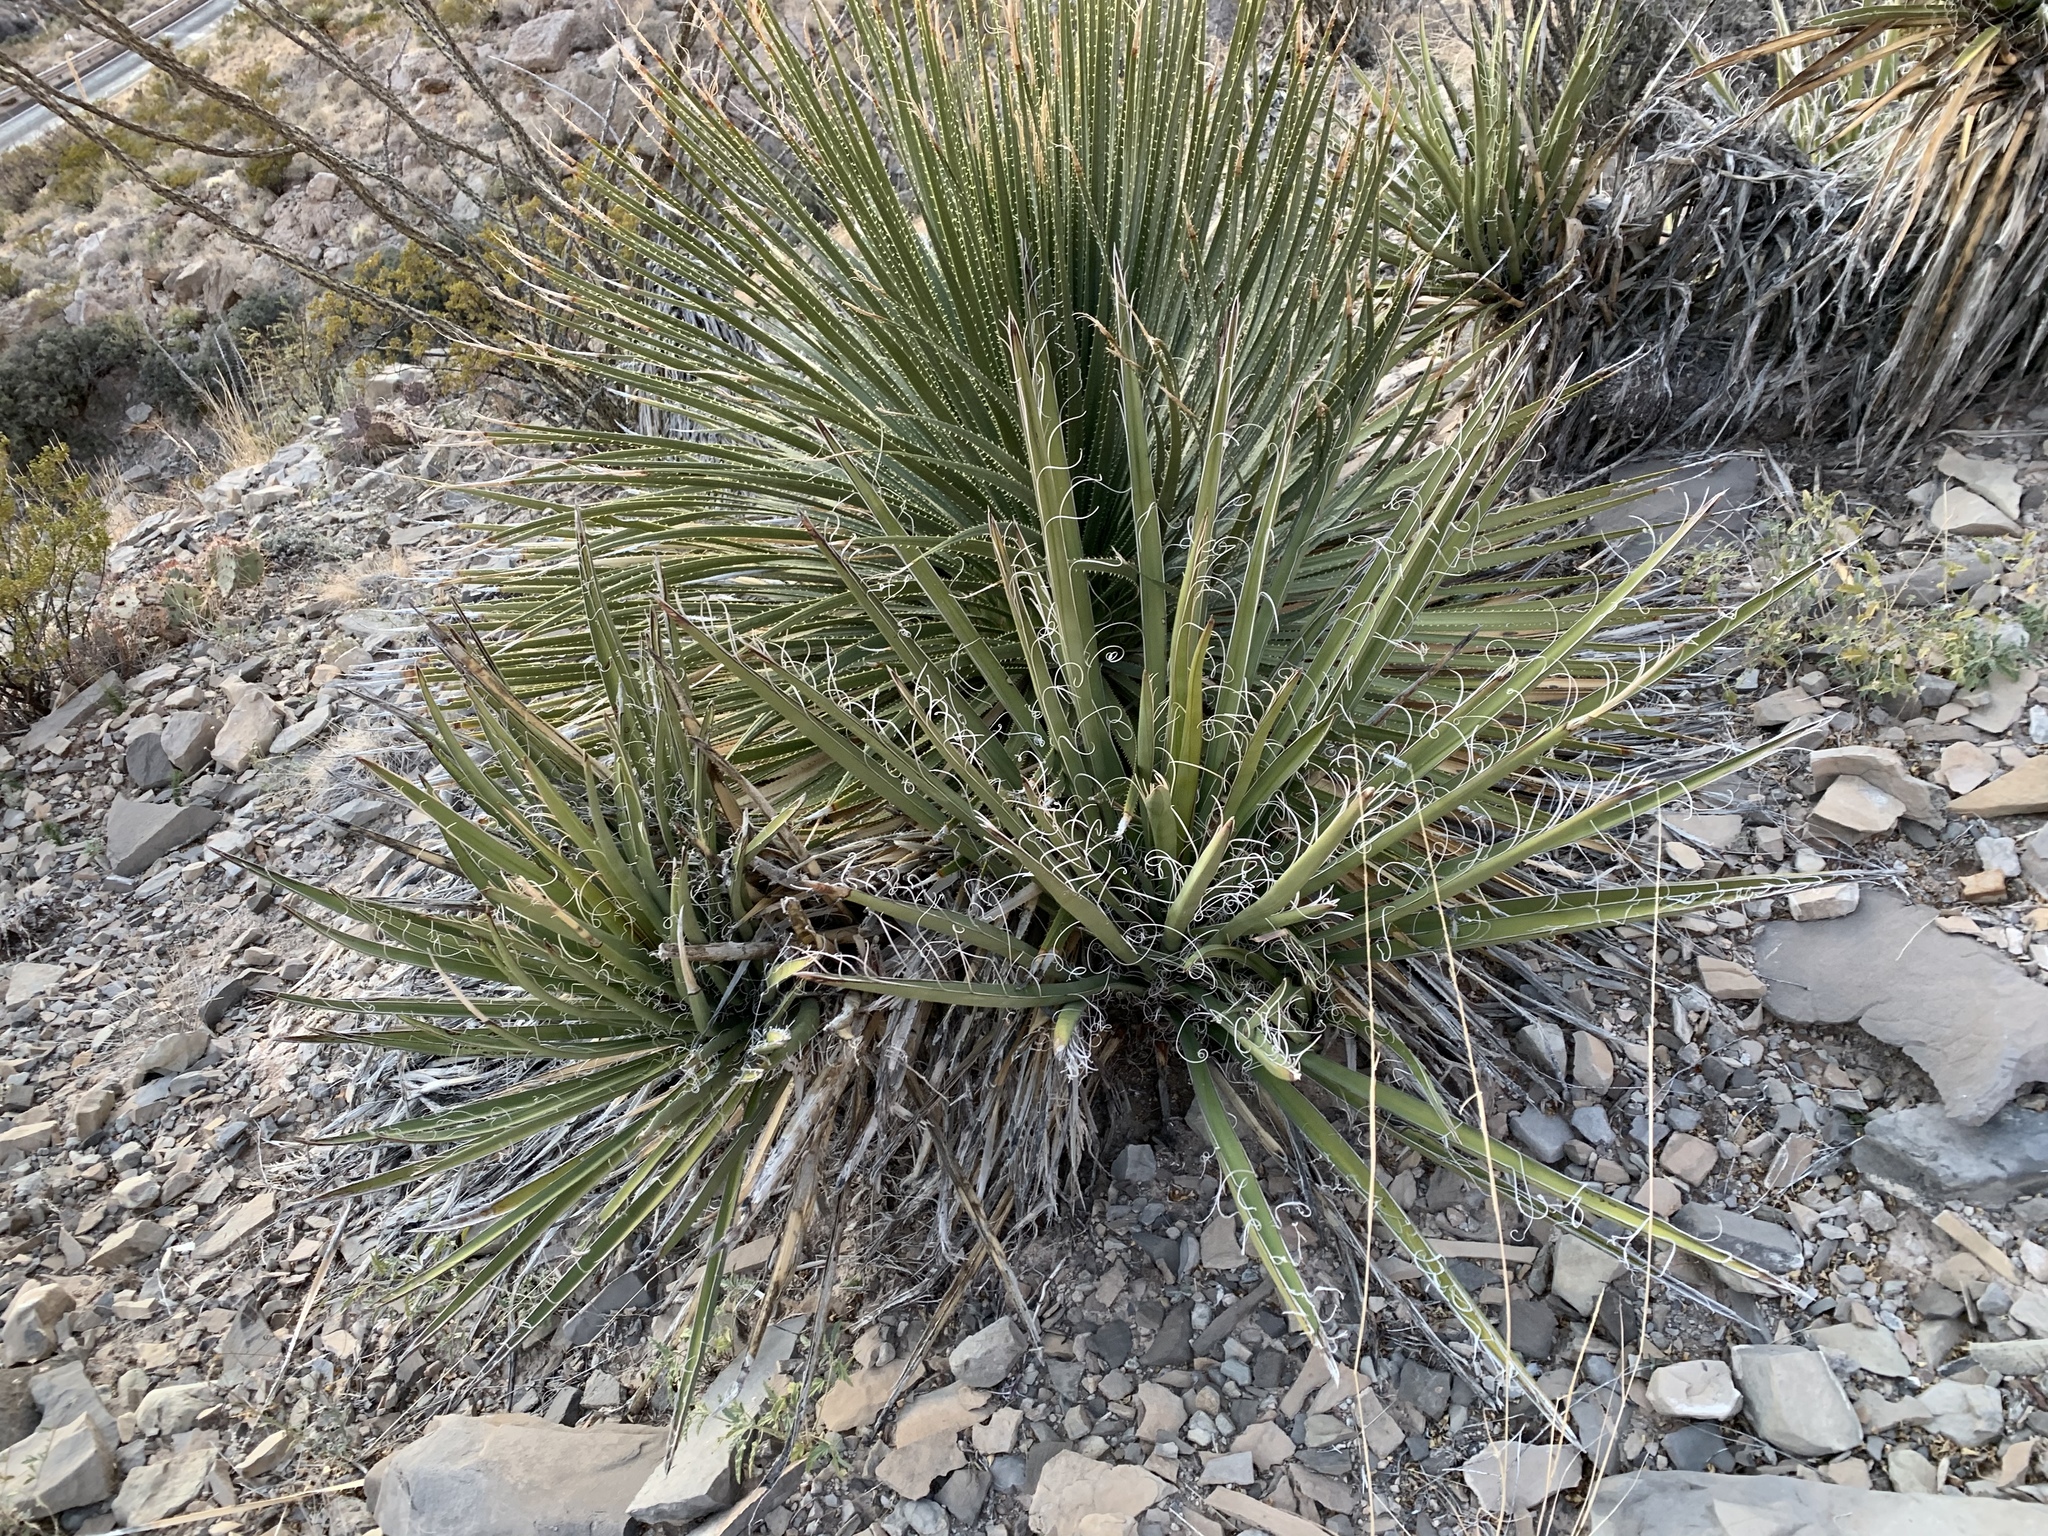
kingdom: Plantae
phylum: Tracheophyta
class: Liliopsida
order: Asparagales
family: Asparagaceae
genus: Yucca
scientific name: Yucca treculiana
